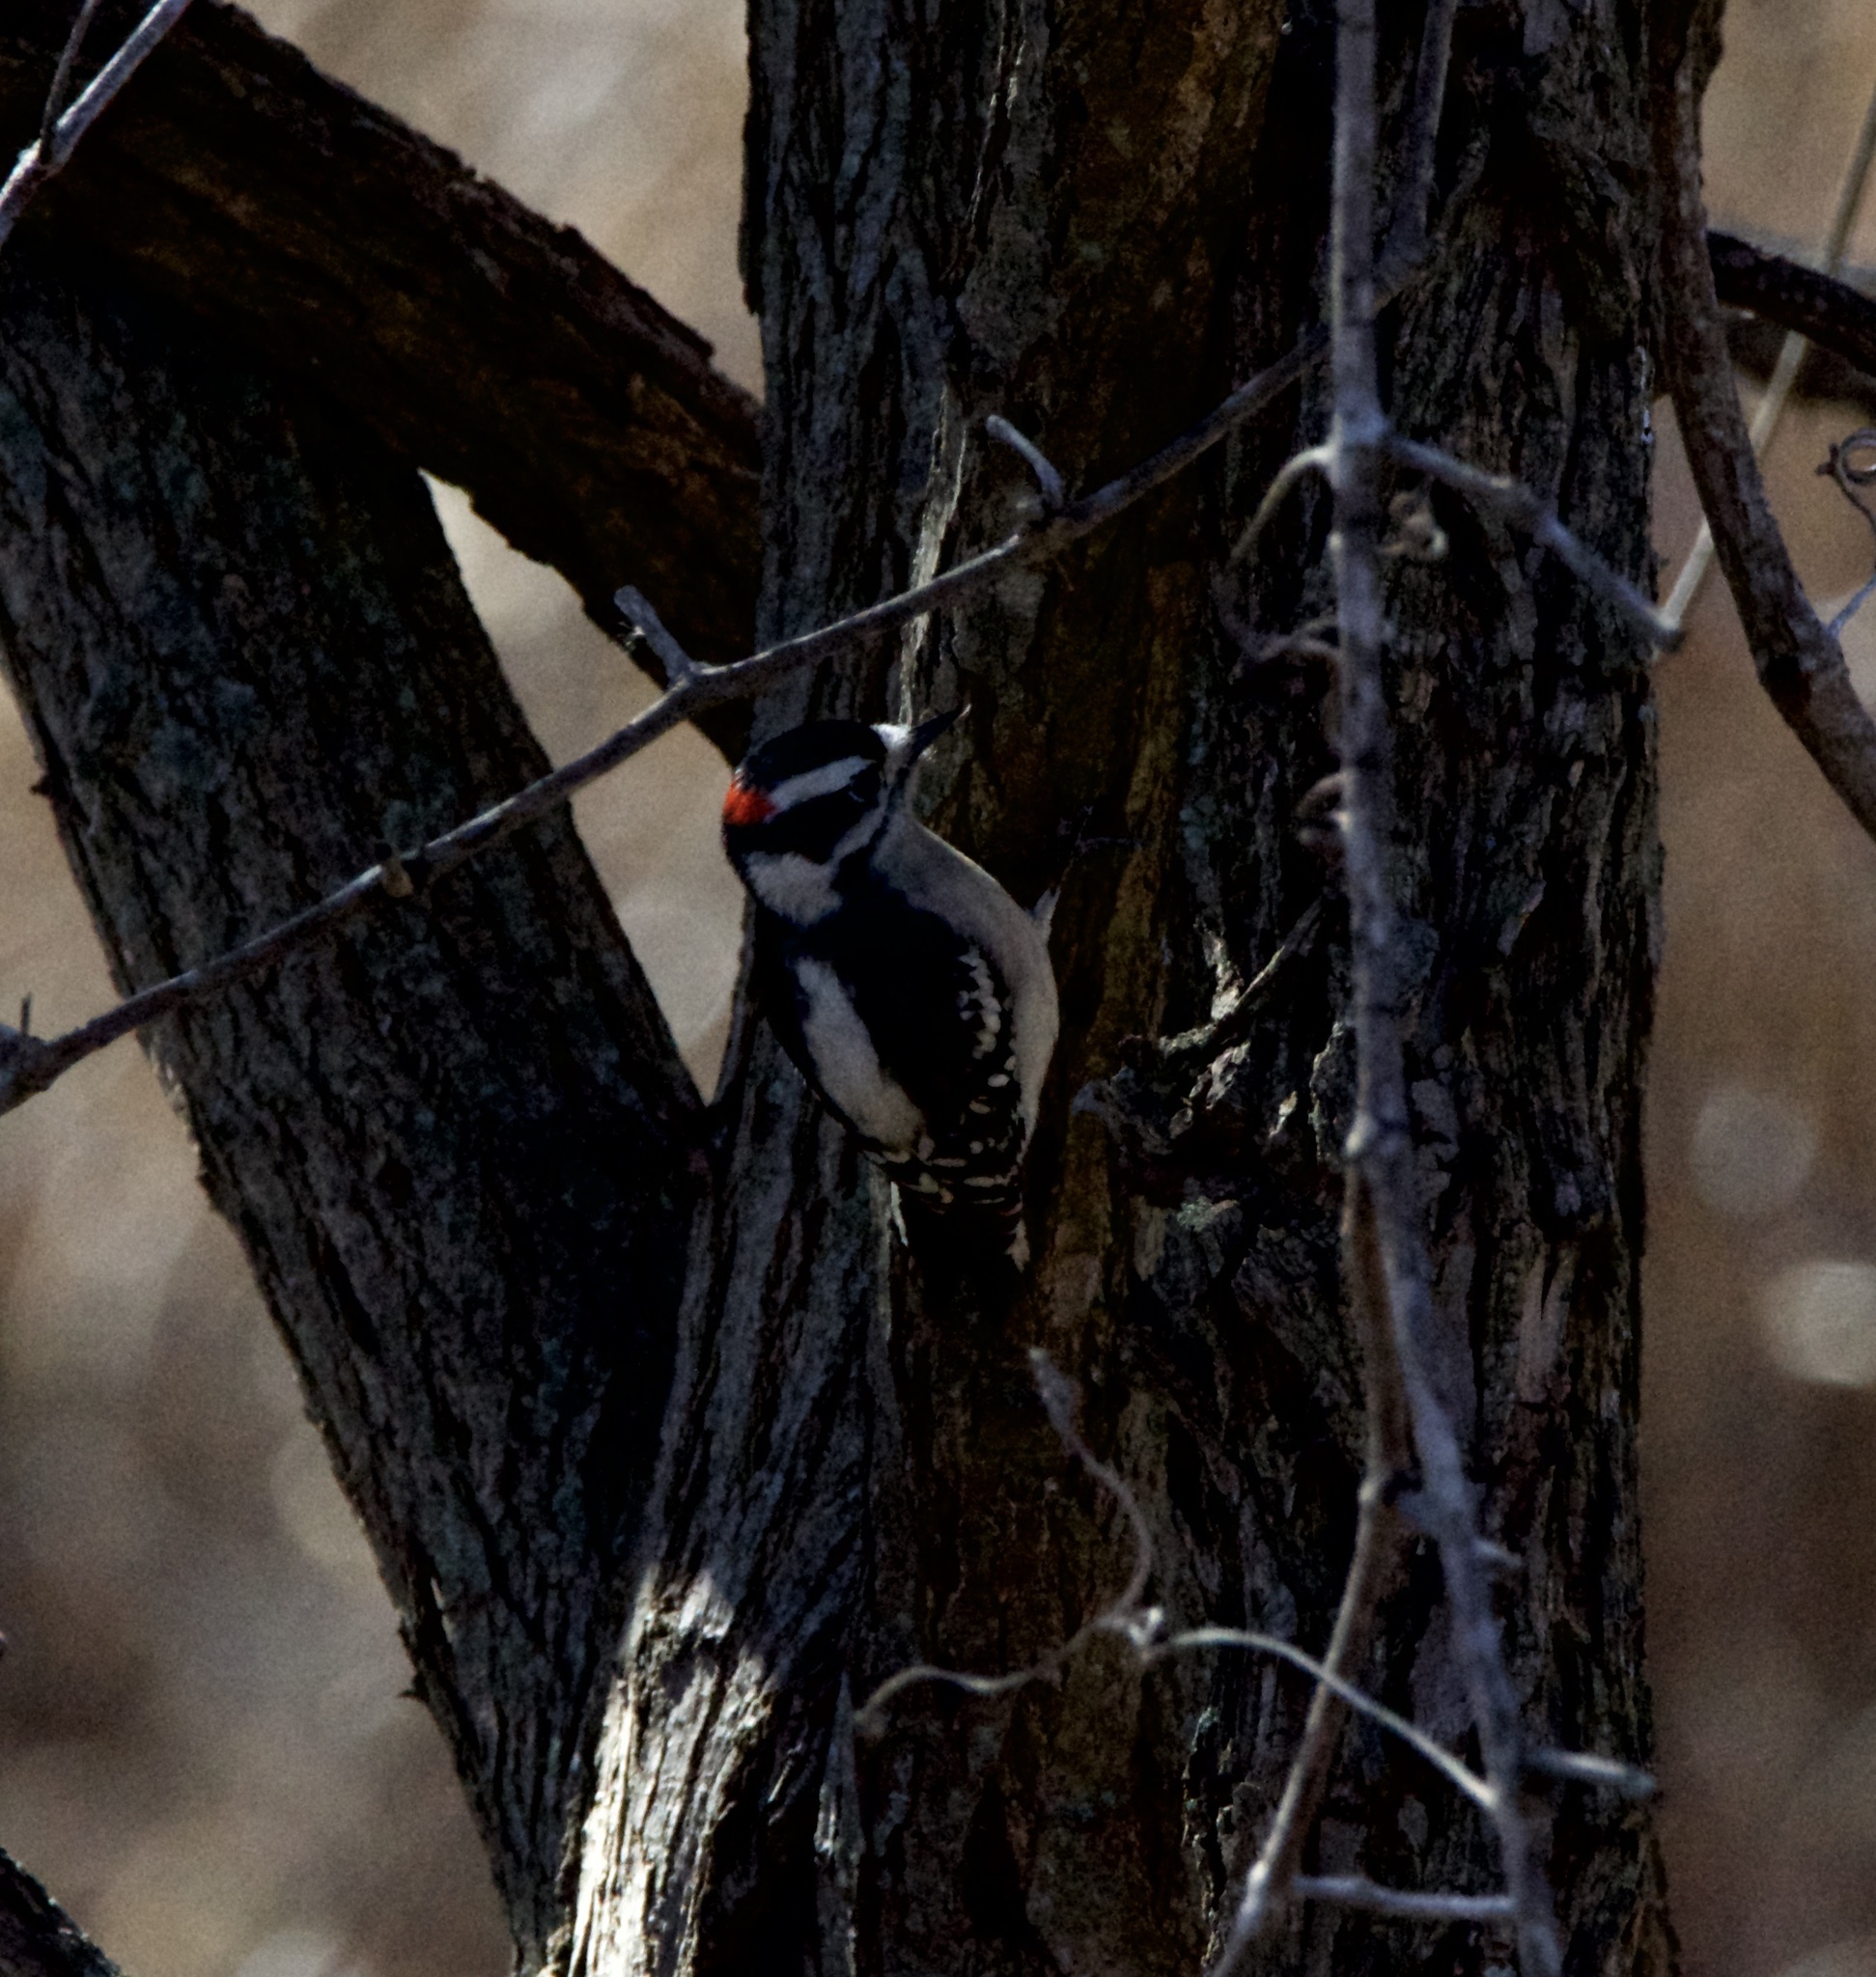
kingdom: Animalia
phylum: Chordata
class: Aves
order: Piciformes
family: Picidae
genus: Dryobates
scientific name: Dryobates pubescens
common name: Downy woodpecker
